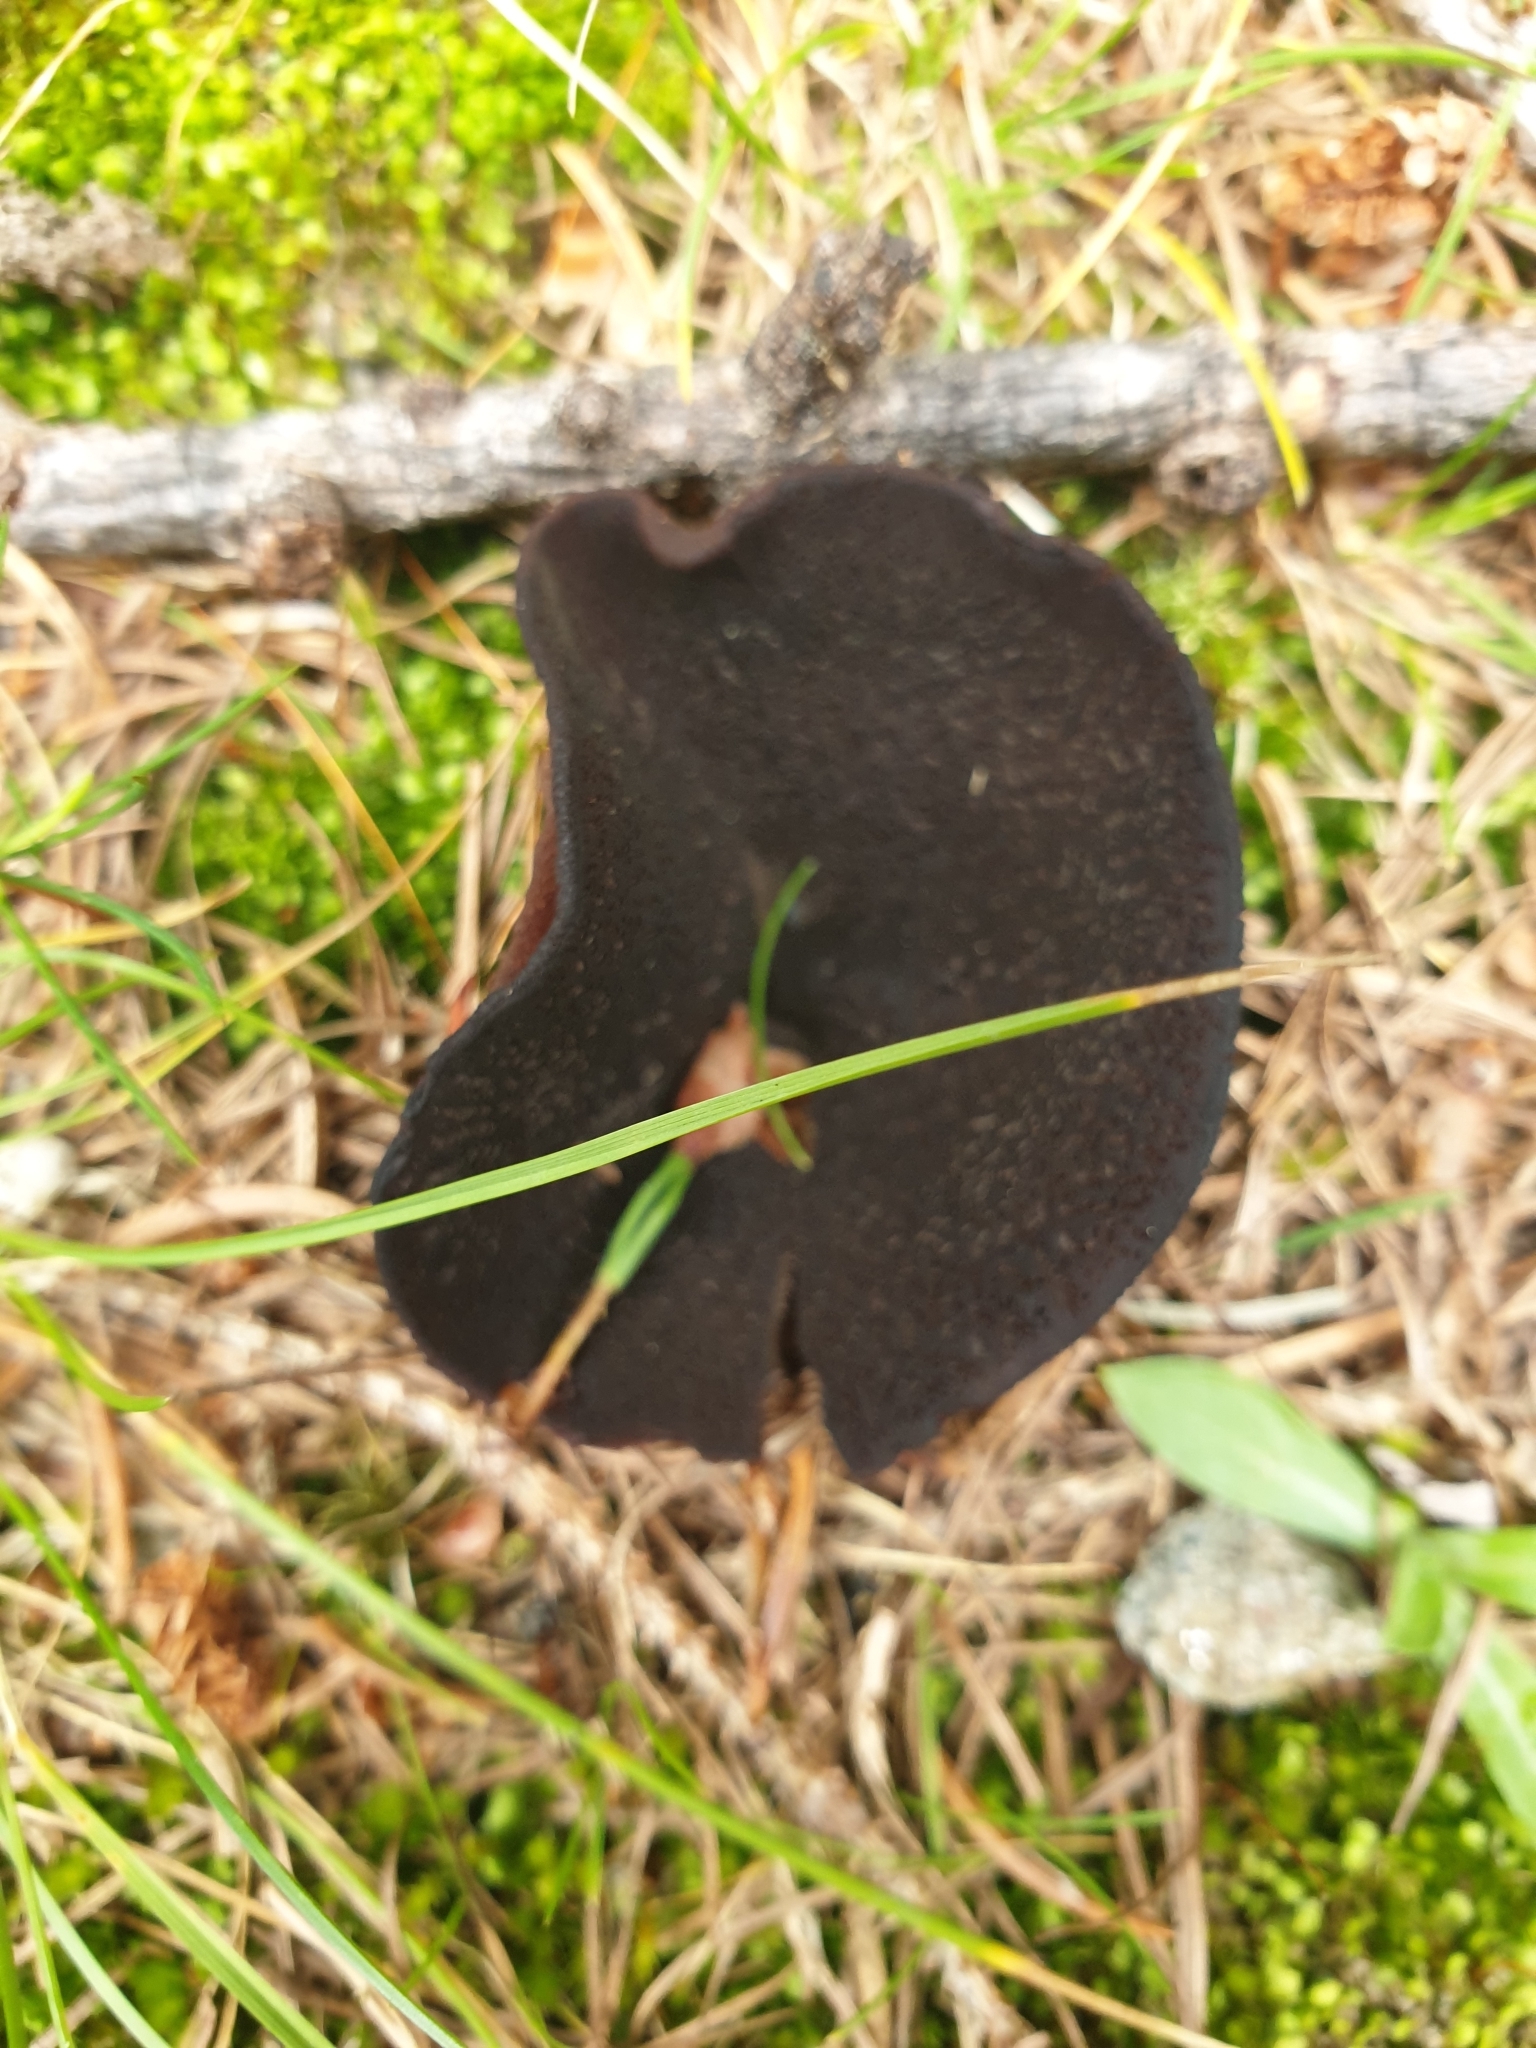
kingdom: Fungi
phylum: Ascomycota
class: Pezizomycetes
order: Pezizales
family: Pezizaceae
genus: Legaliana
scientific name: Legaliana badia
